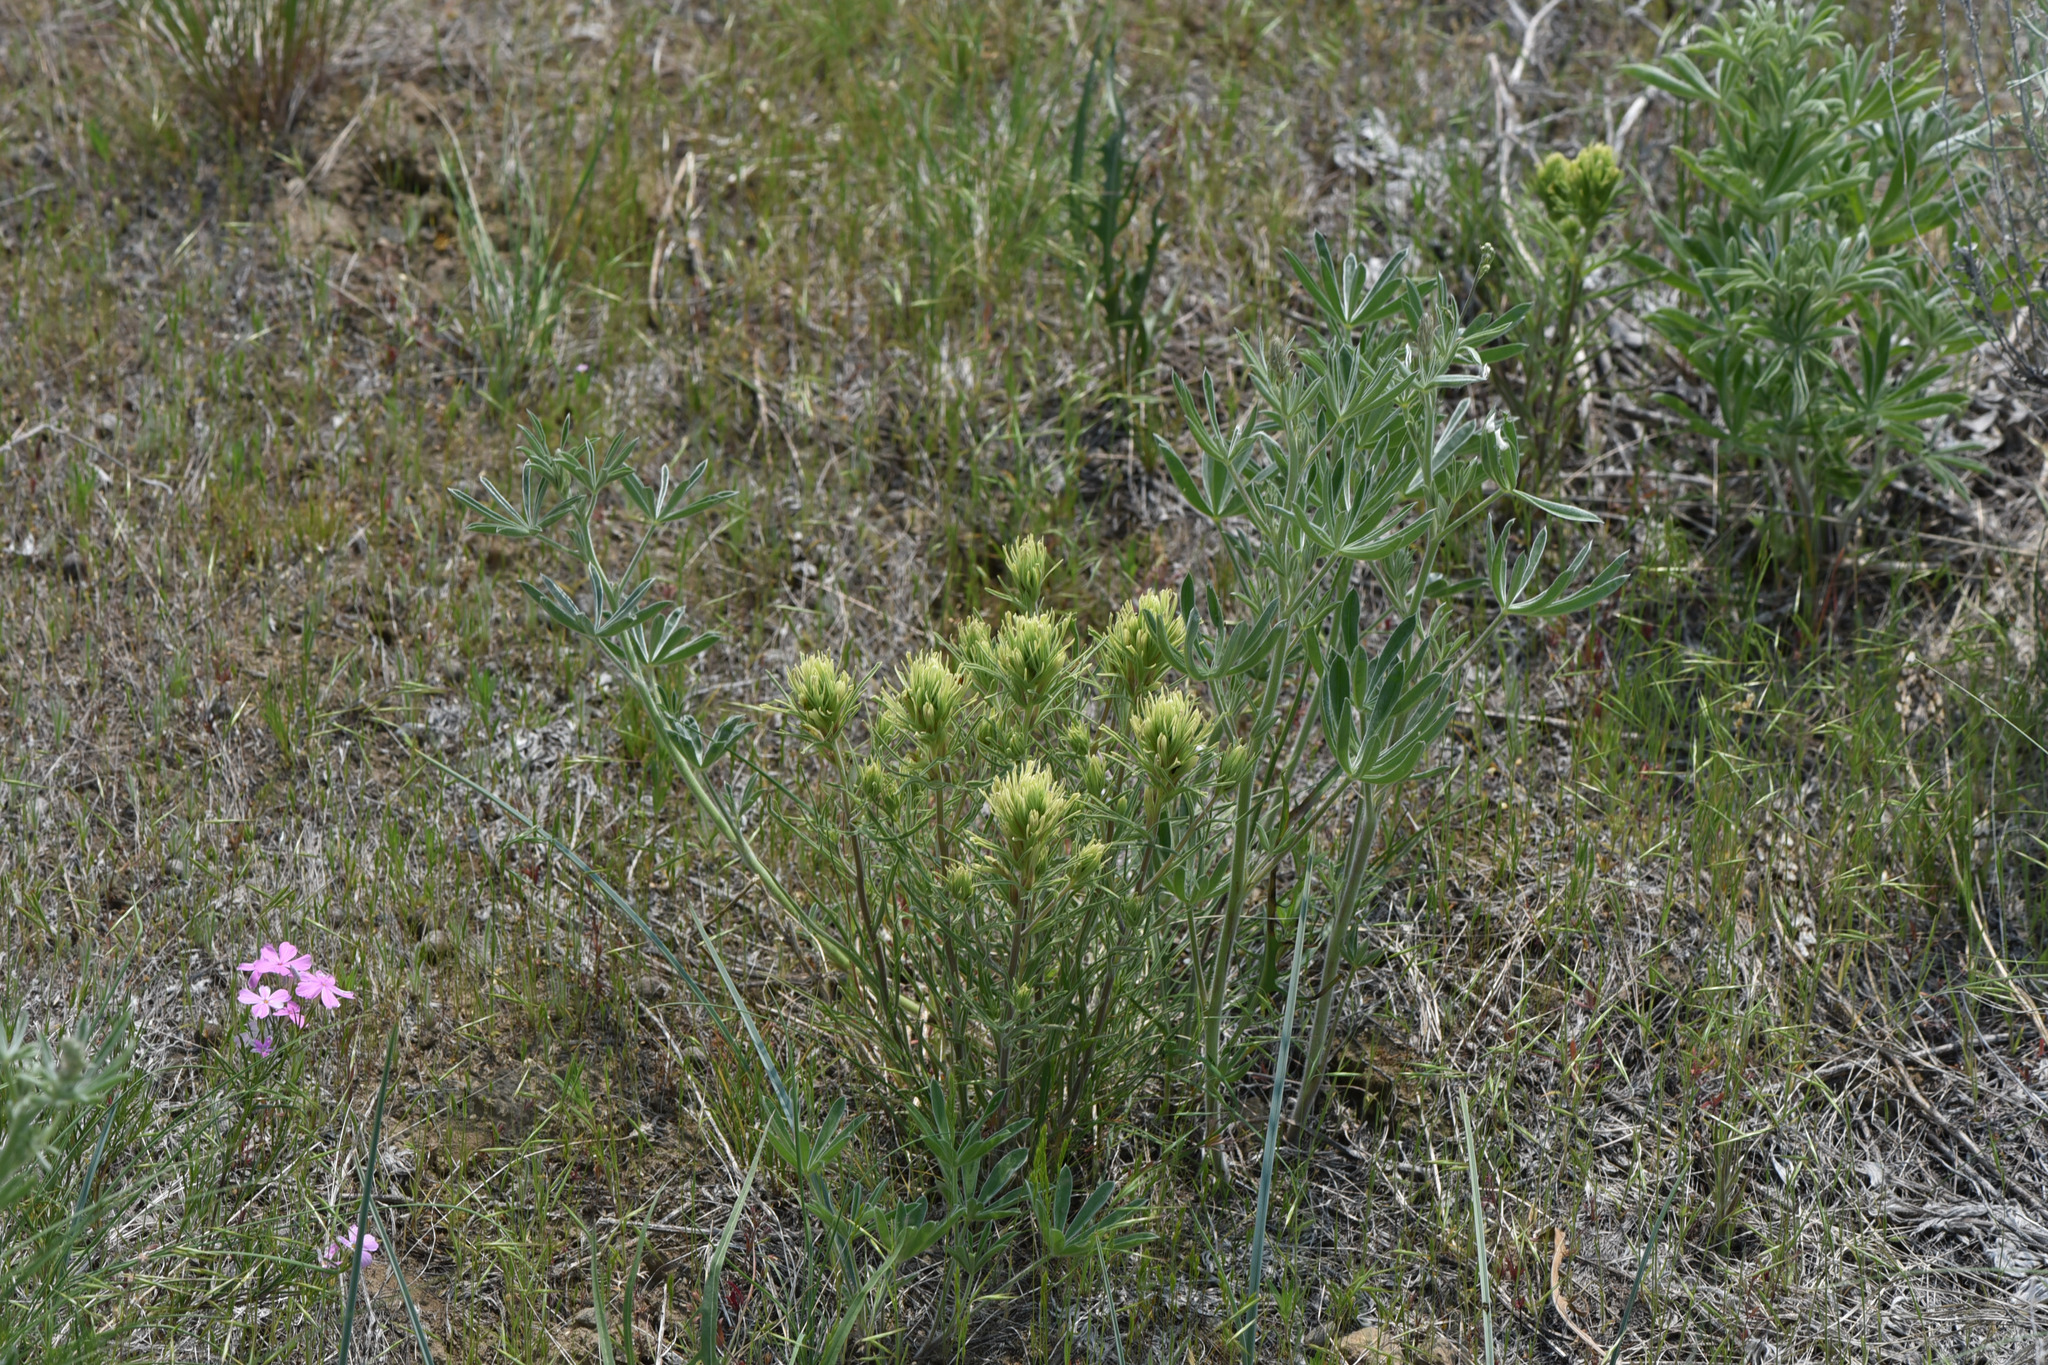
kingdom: Plantae
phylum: Tracheophyta
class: Magnoliopsida
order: Lamiales
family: Orobanchaceae
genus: Castilleja
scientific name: Castilleja thompsonii
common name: Thompson's paintbrush
